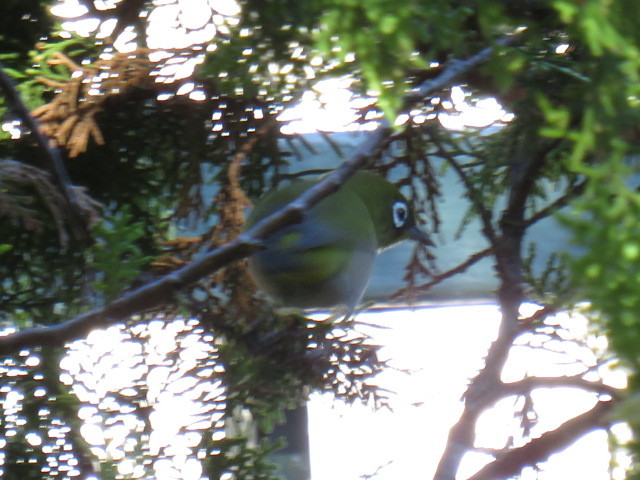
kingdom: Animalia
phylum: Chordata
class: Aves
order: Passeriformes
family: Zosteropidae
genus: Zosterops
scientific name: Zosterops virens
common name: Cape white-eye
